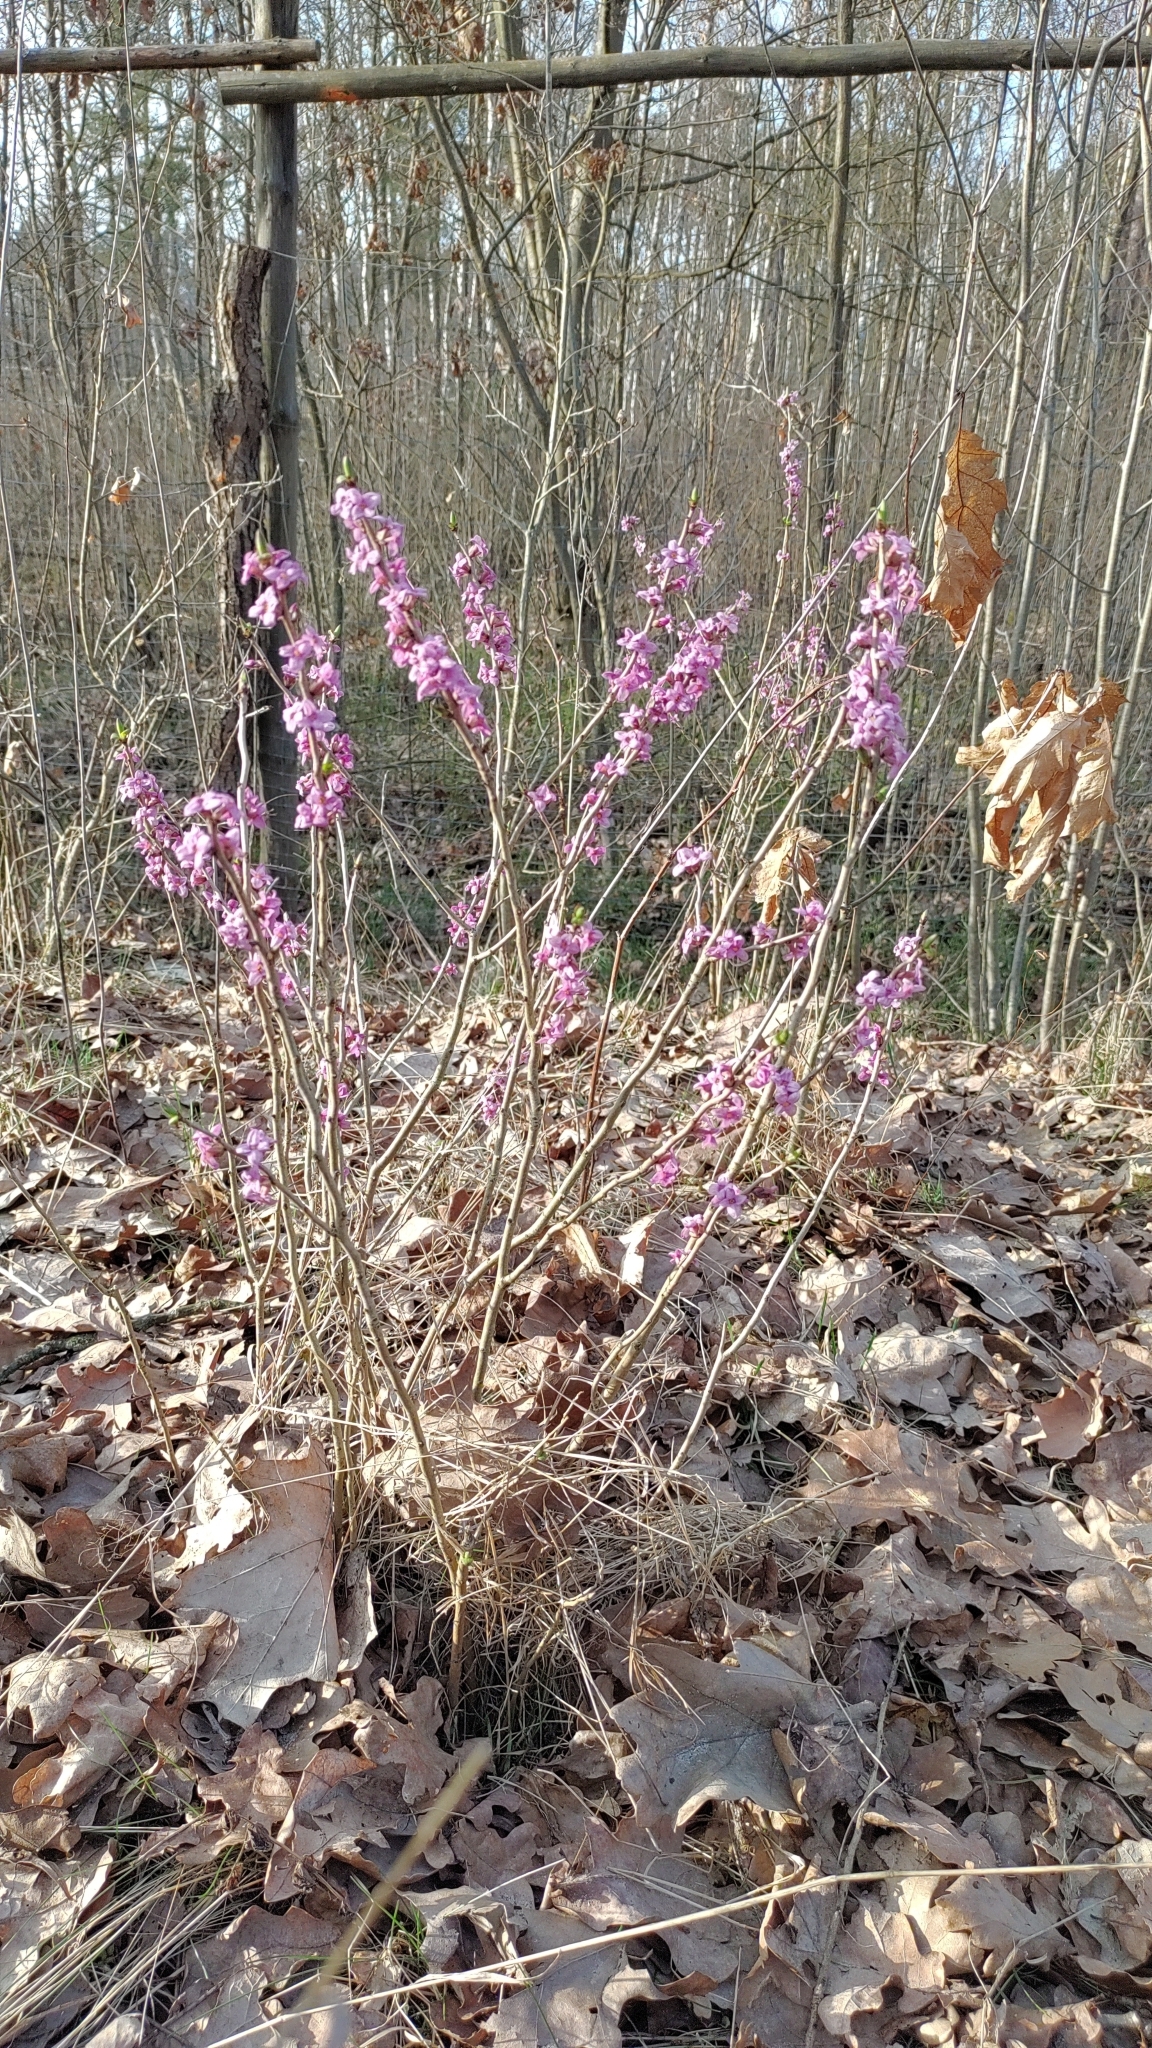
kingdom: Plantae
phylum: Tracheophyta
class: Magnoliopsida
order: Malvales
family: Thymelaeaceae
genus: Daphne
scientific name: Daphne mezereum
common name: Mezereon
